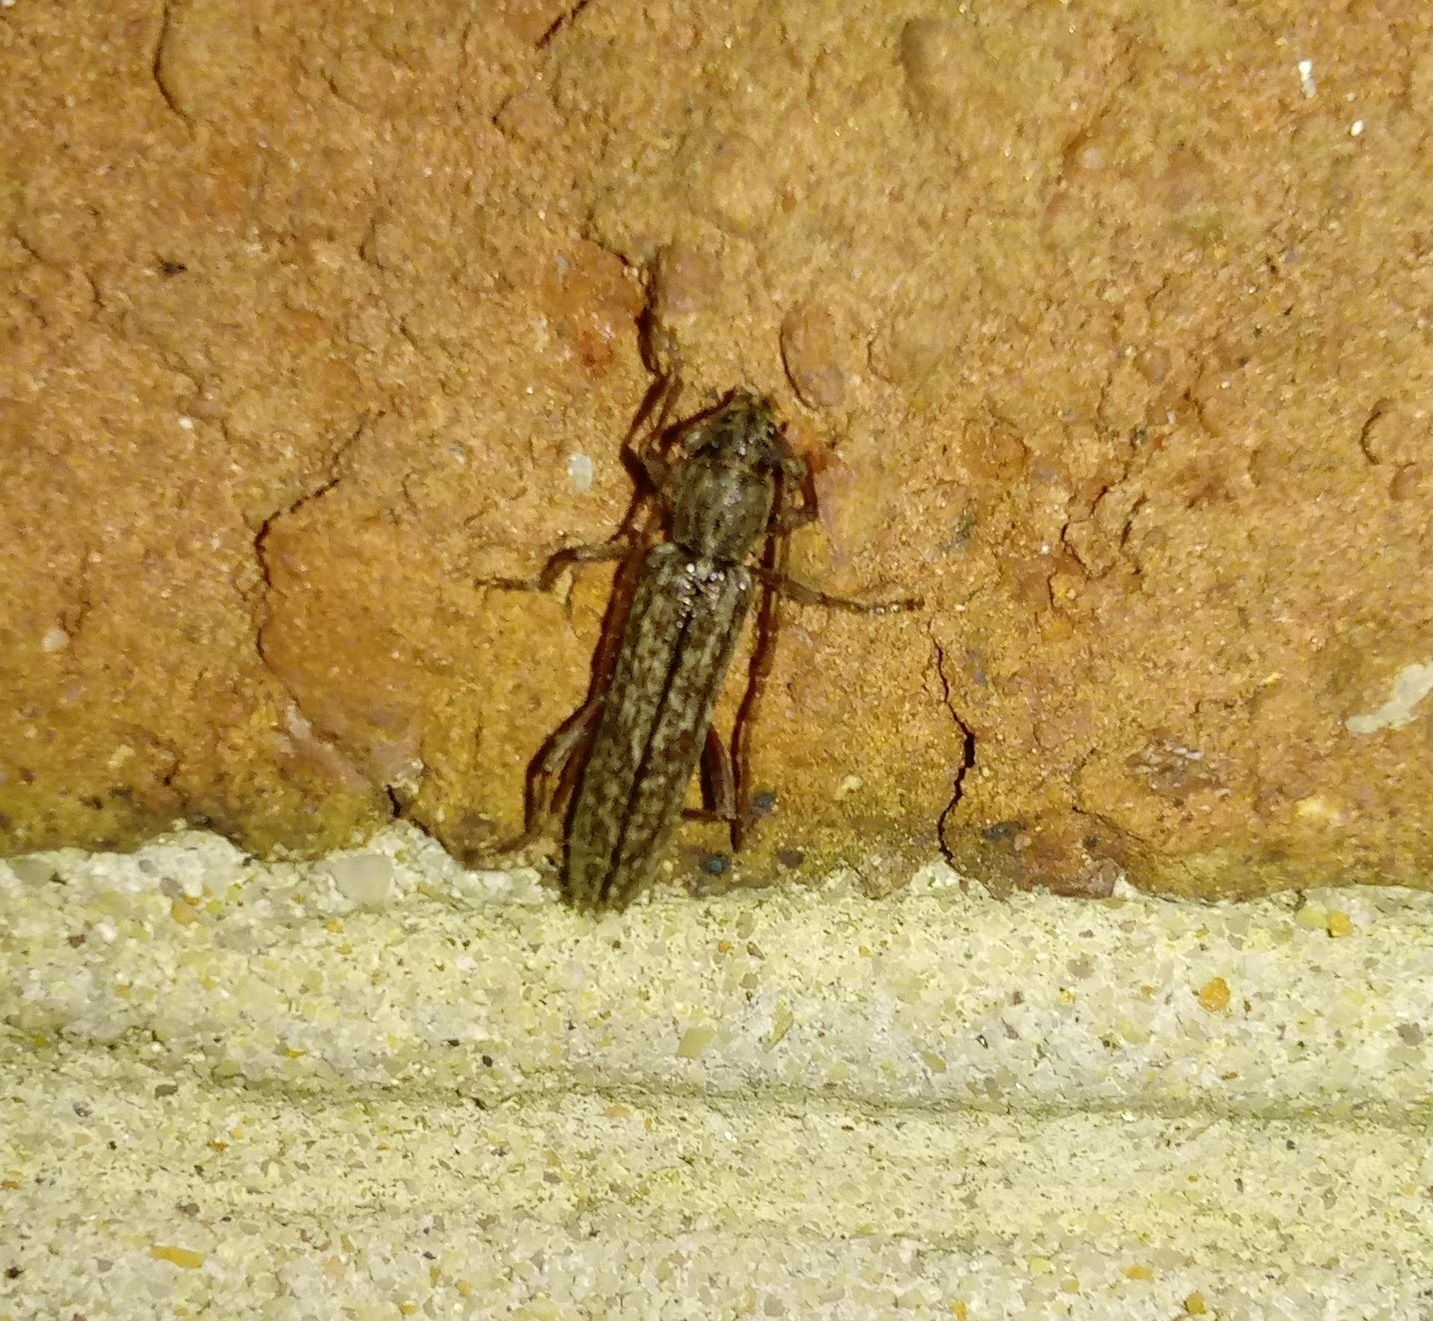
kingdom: Animalia
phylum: Arthropoda
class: Insecta
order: Coleoptera
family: Cerambycidae
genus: Anelaphus
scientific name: Anelaphus villosus
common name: Twig pruner
